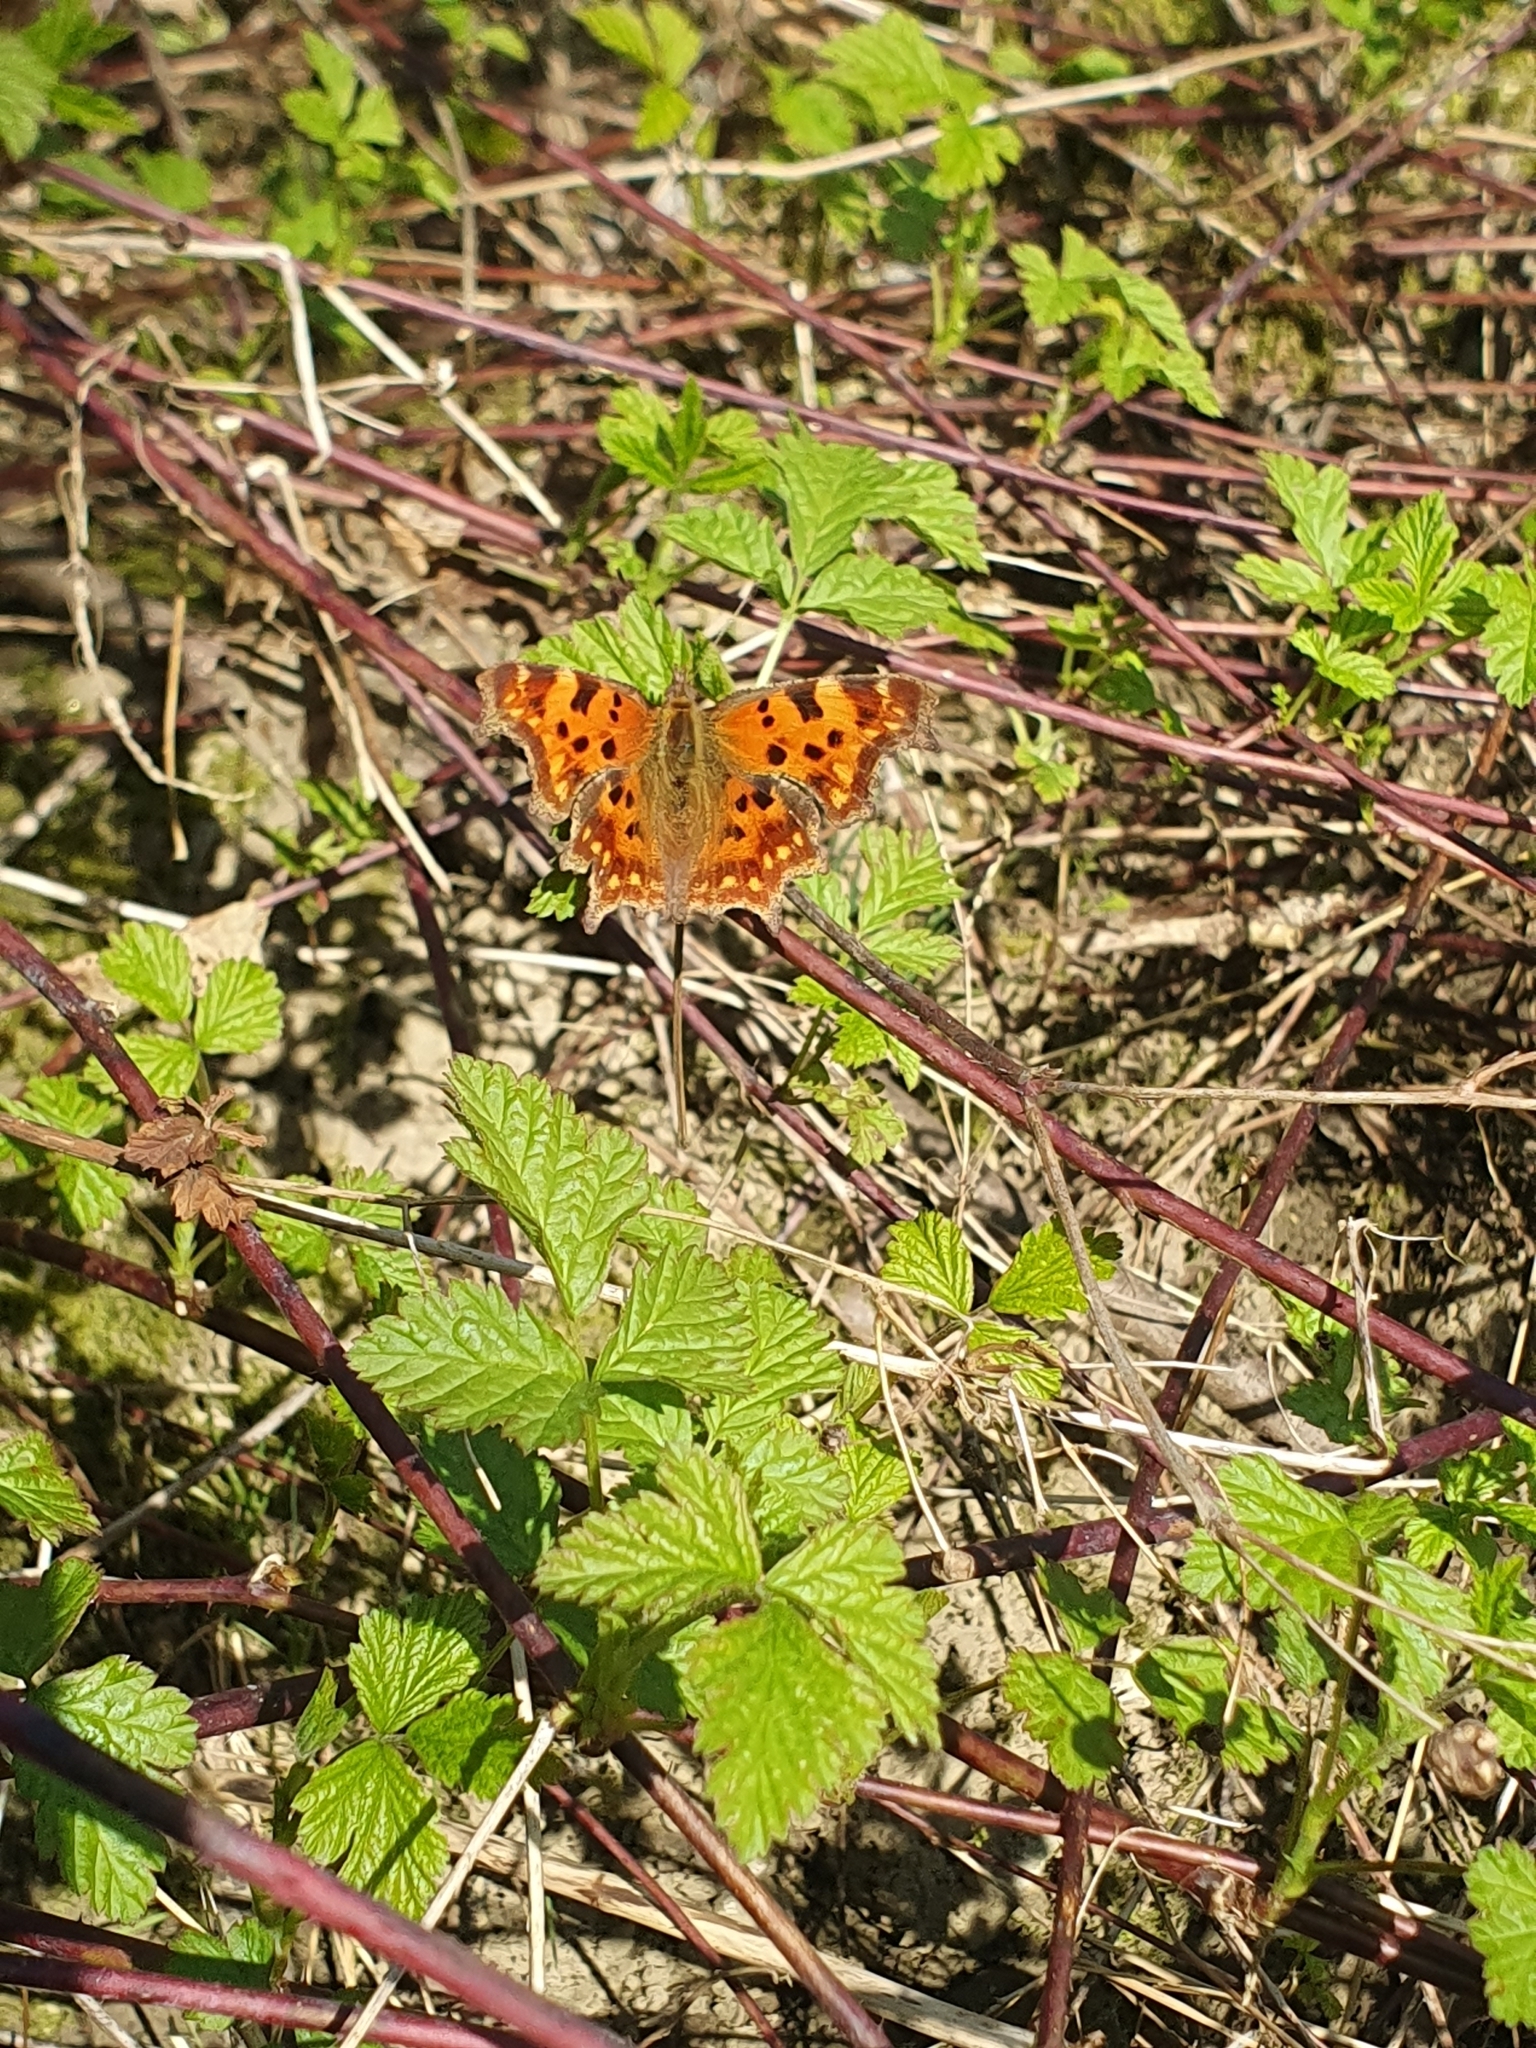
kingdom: Animalia
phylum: Arthropoda
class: Insecta
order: Lepidoptera
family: Nymphalidae
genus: Polygonia
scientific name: Polygonia c-album
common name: Comma
